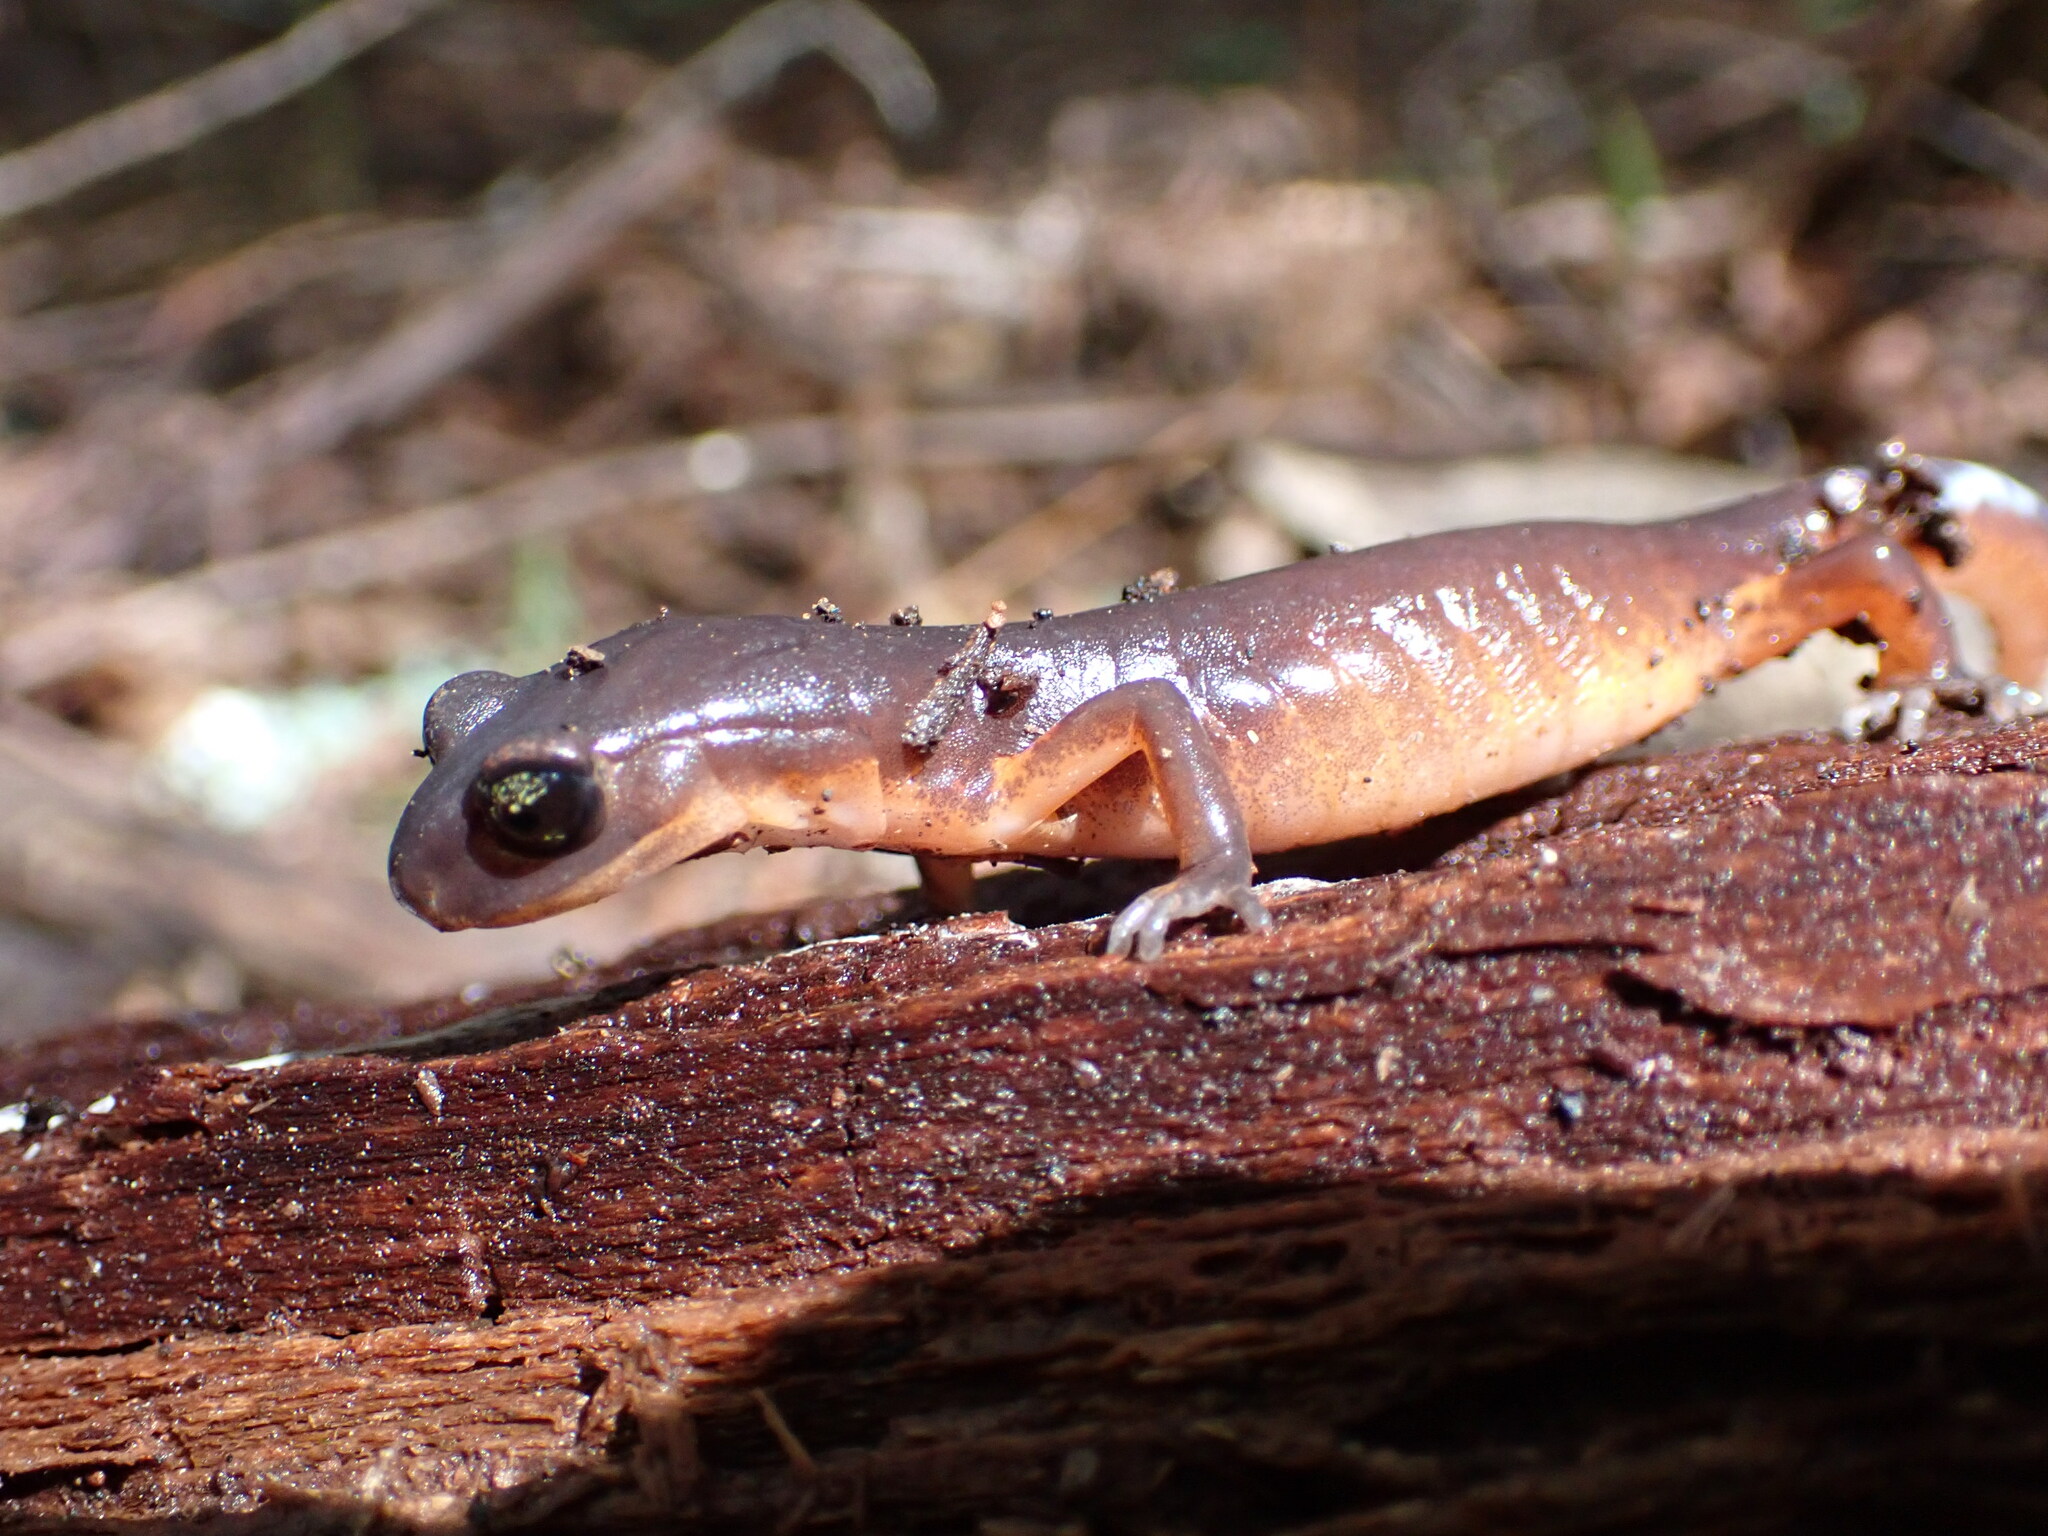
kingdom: Animalia
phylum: Chordata
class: Amphibia
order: Caudata
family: Plethodontidae
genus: Ensatina
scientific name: Ensatina eschscholtzii
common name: Ensatina
